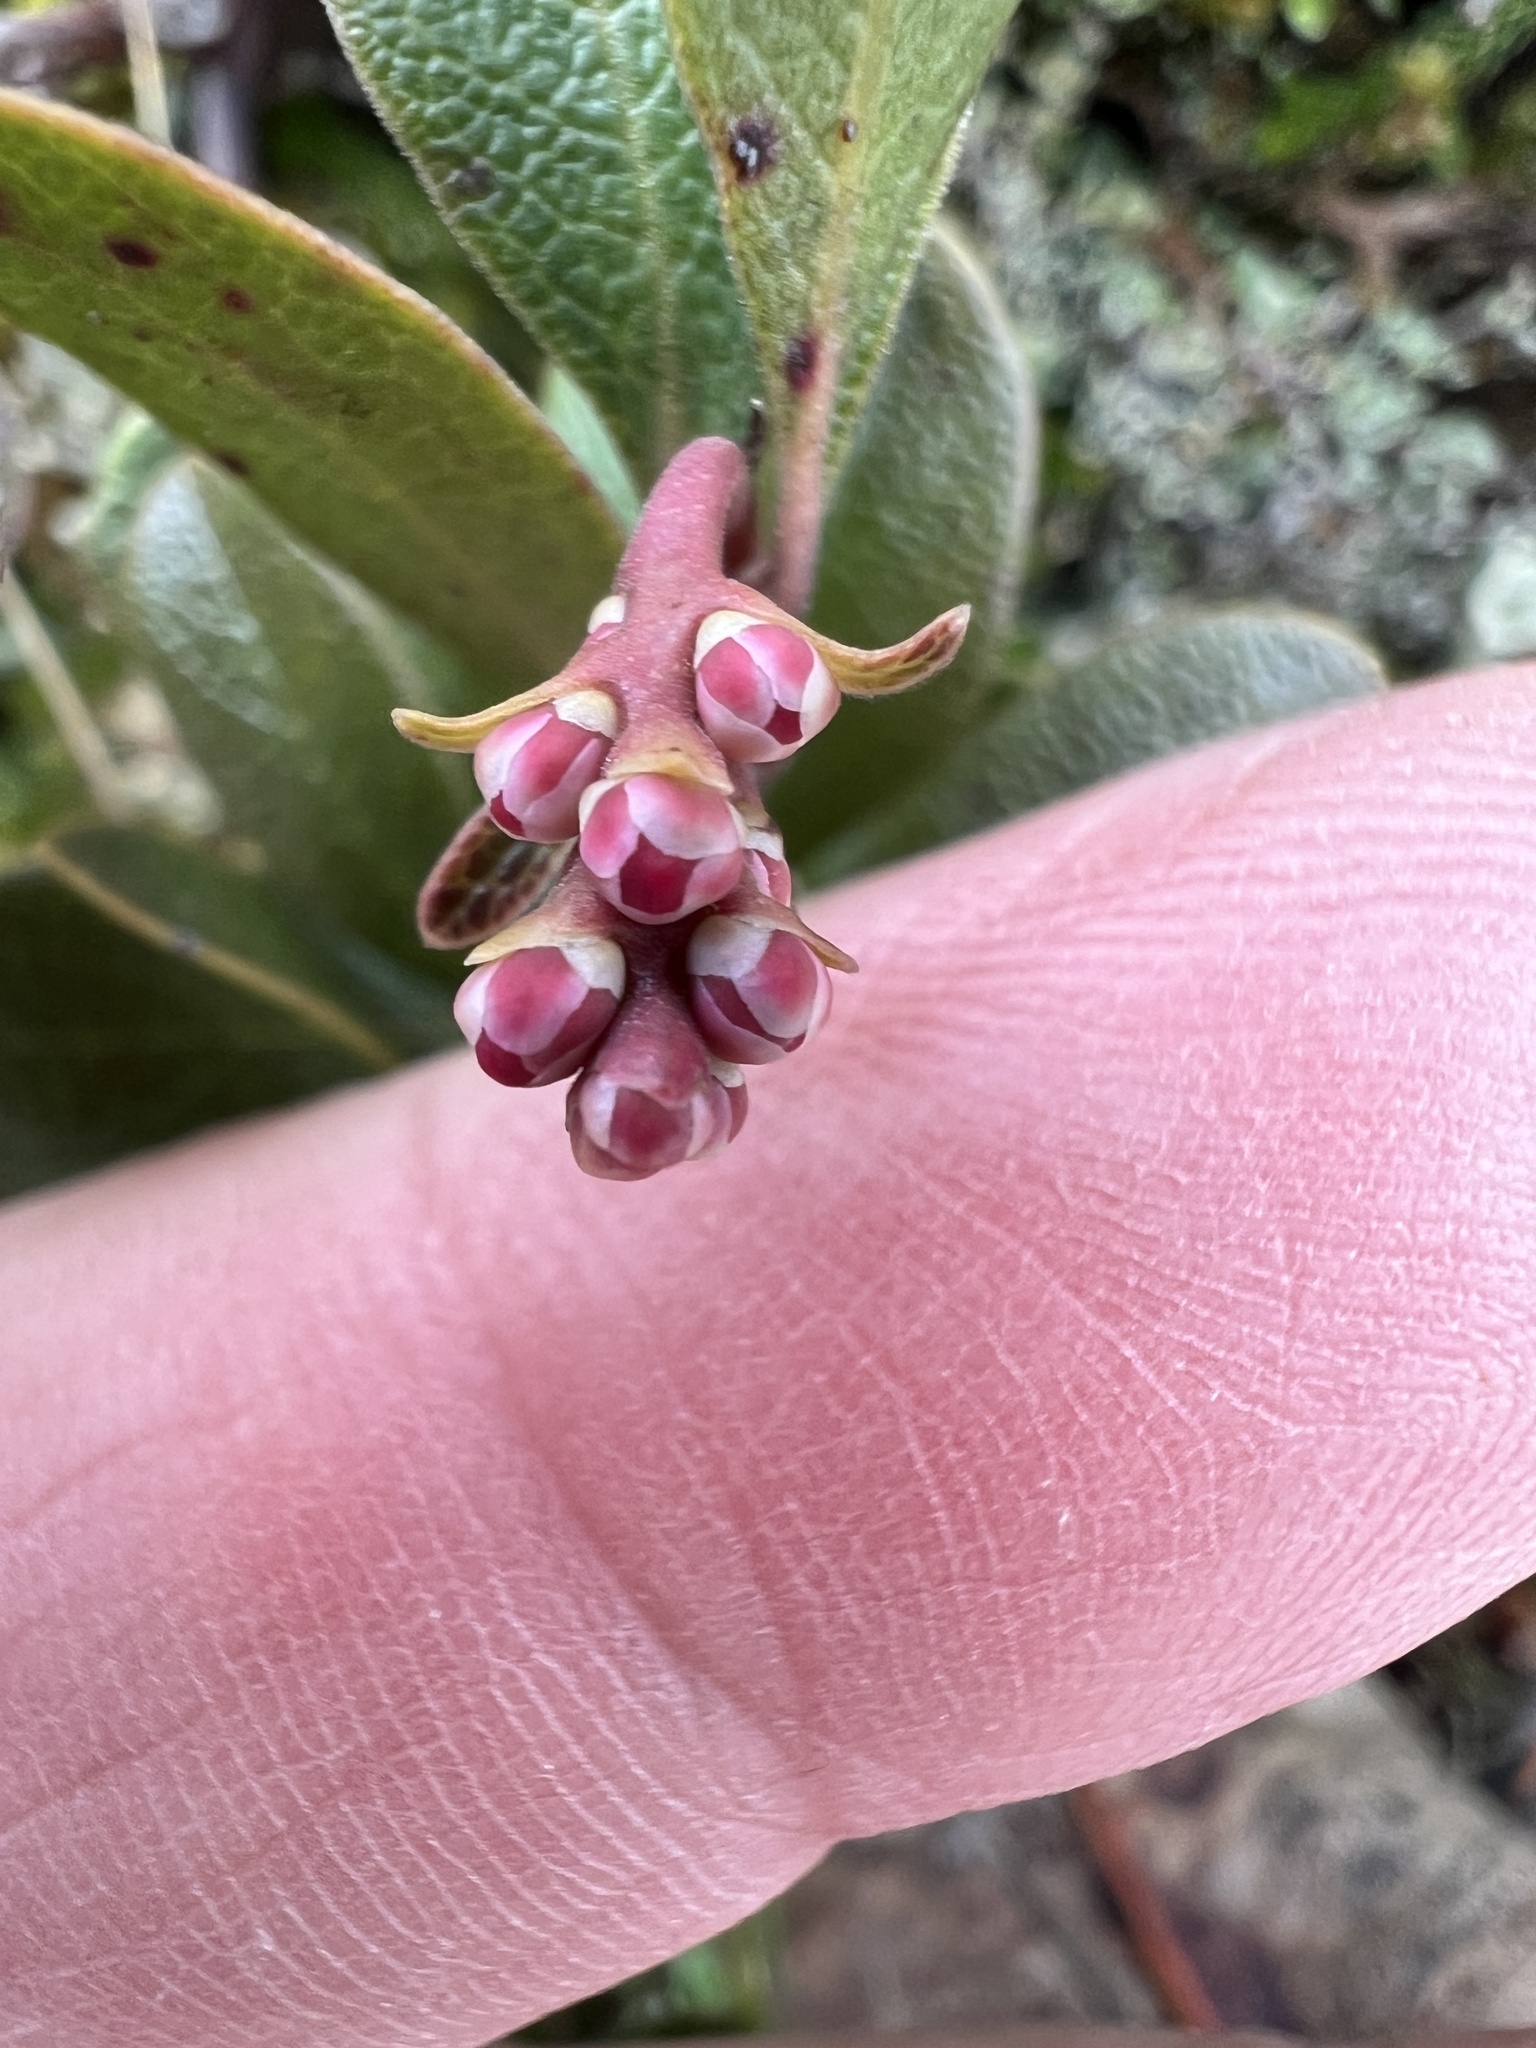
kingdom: Plantae
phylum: Tracheophyta
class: Magnoliopsida
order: Ericales
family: Ericaceae
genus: Arctostaphylos
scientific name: Arctostaphylos uva-ursi
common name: Bearberry
